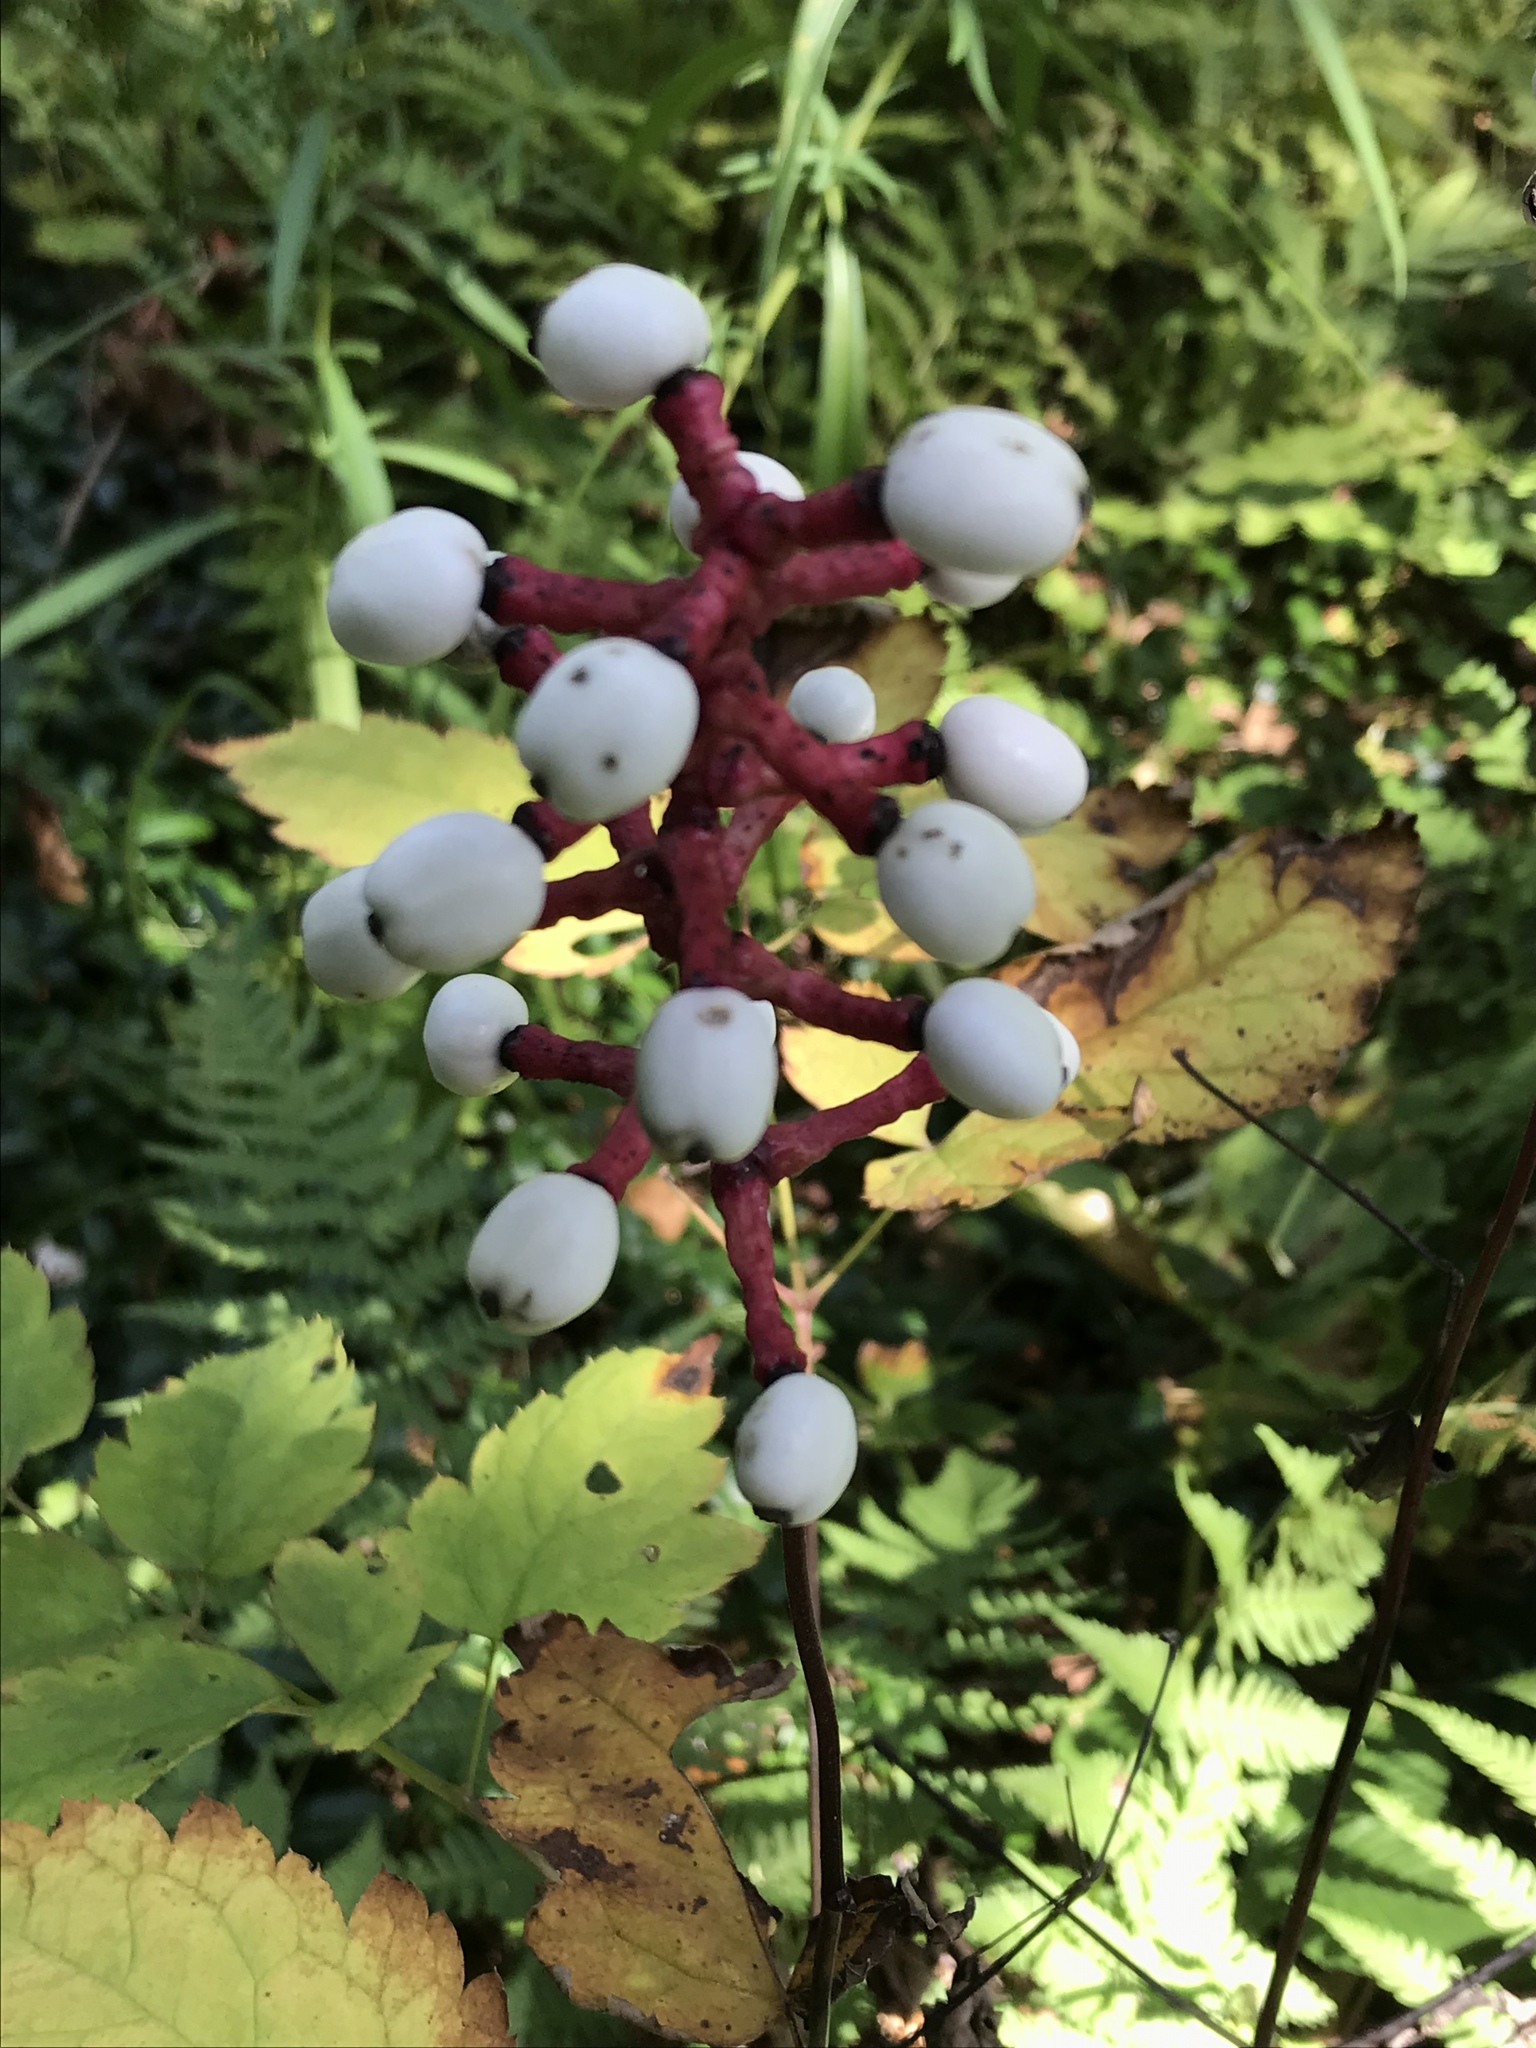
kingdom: Plantae
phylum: Tracheophyta
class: Magnoliopsida
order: Ranunculales
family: Ranunculaceae
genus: Actaea
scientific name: Actaea pachypoda
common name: Doll's-eyes
